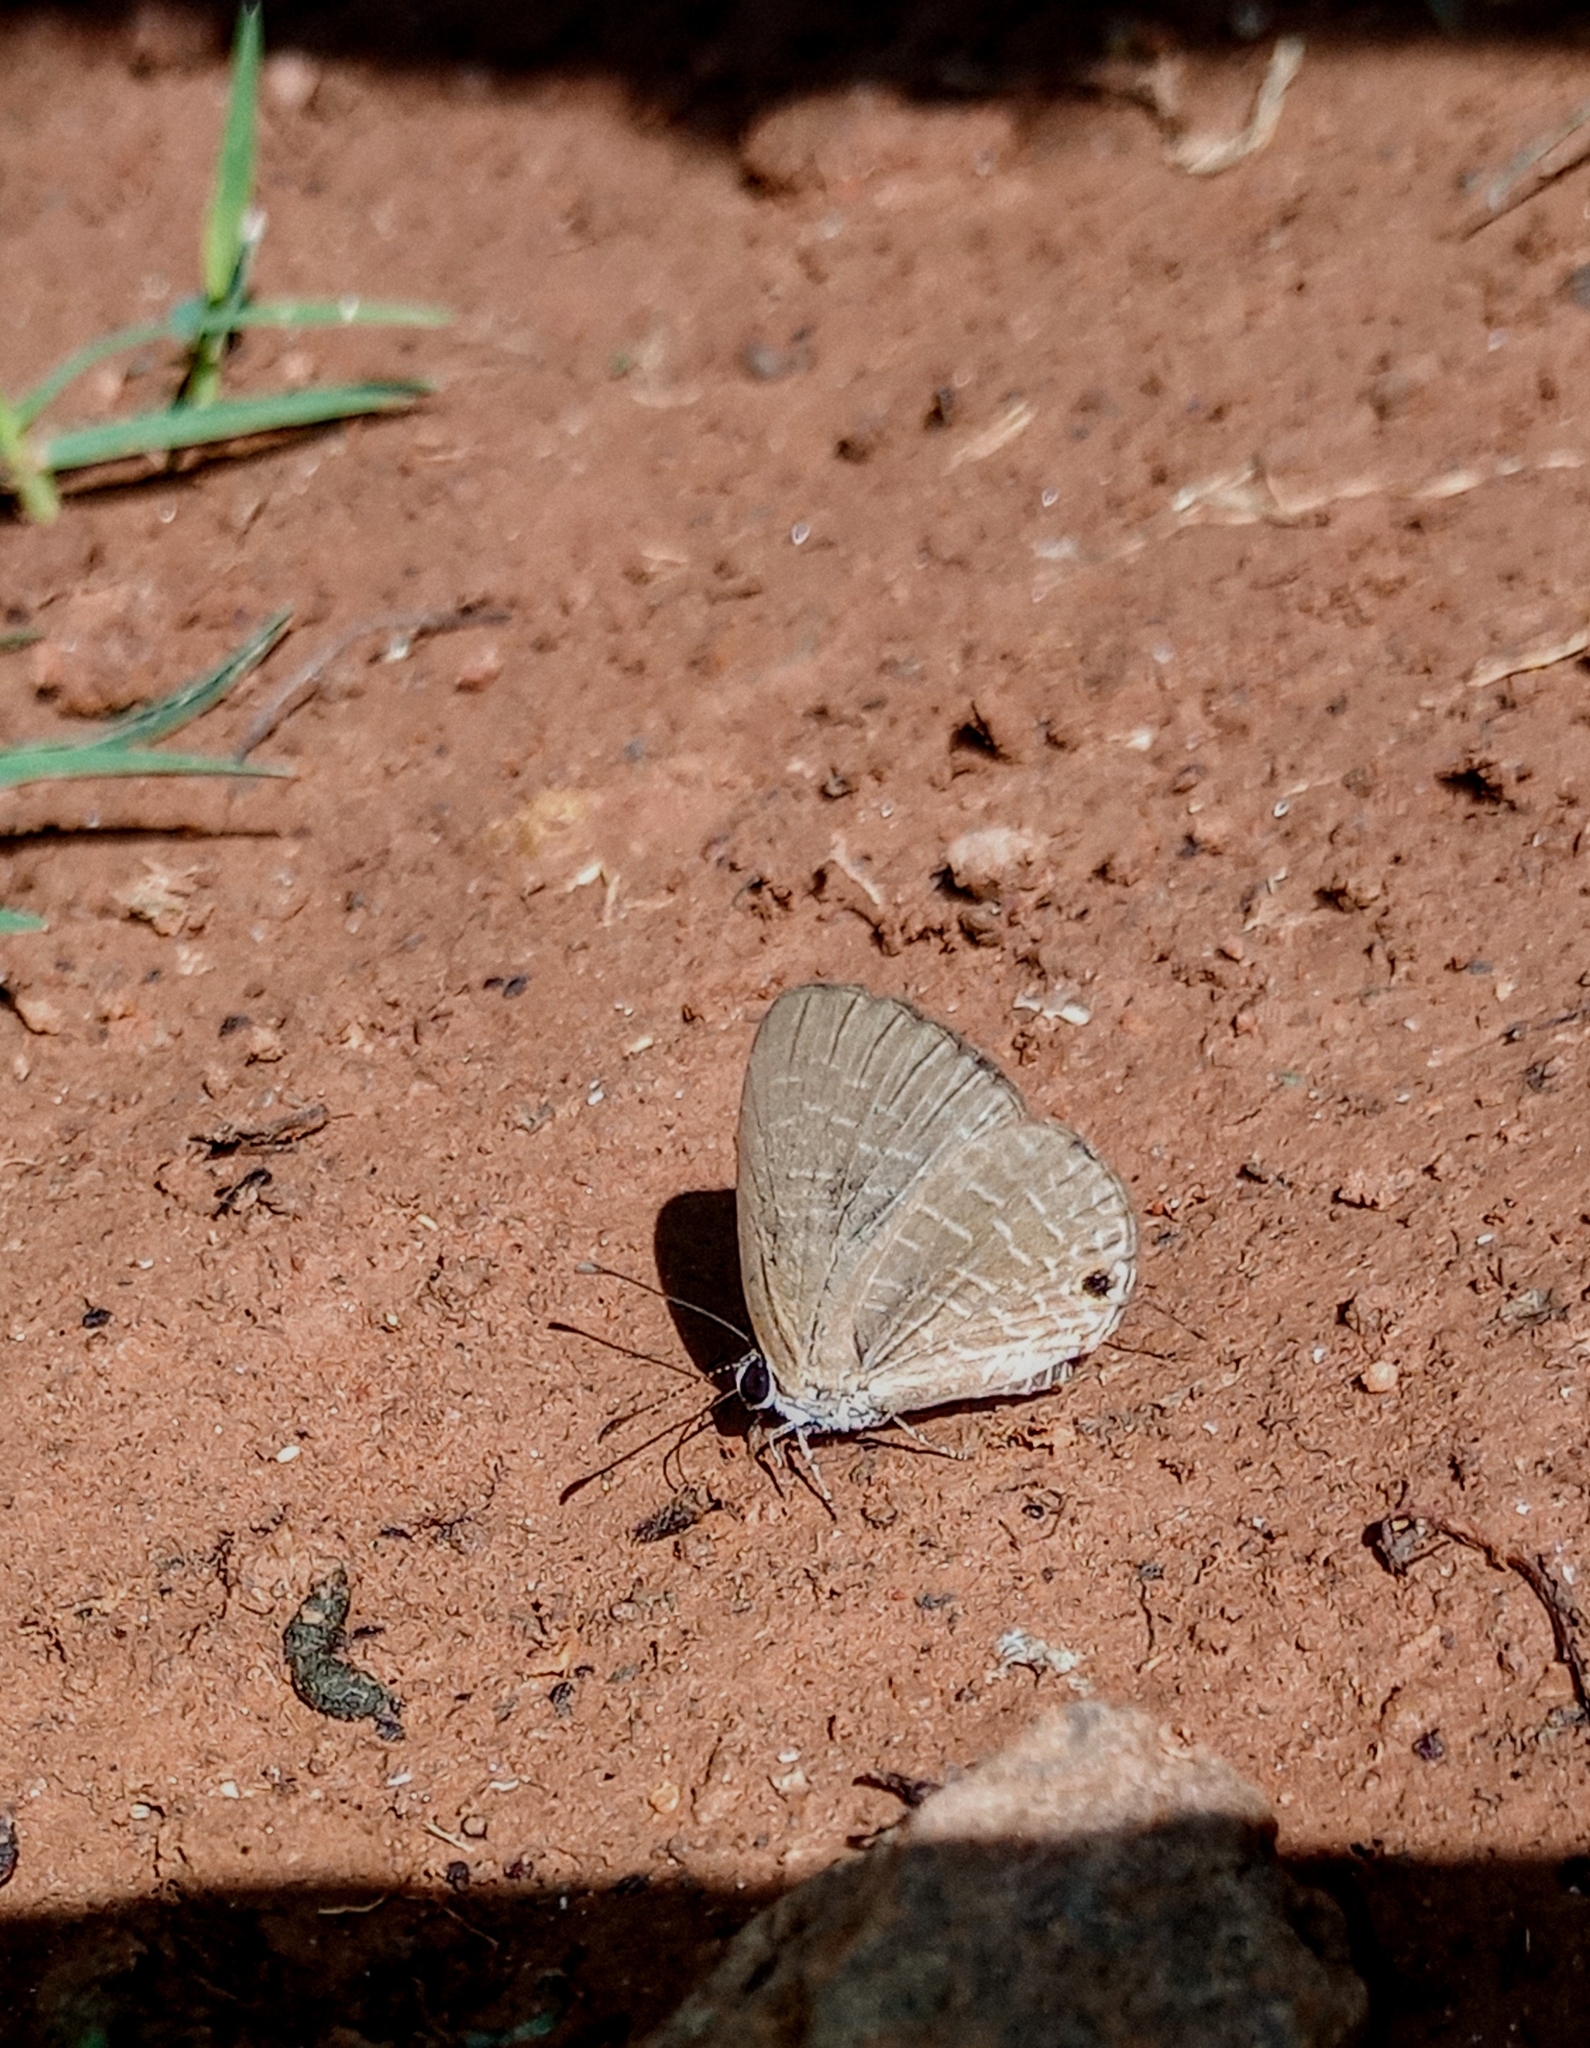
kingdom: Animalia
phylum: Arthropoda
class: Insecta
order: Lepidoptera
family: Lycaenidae
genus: Jamides
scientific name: Jamides bochus
